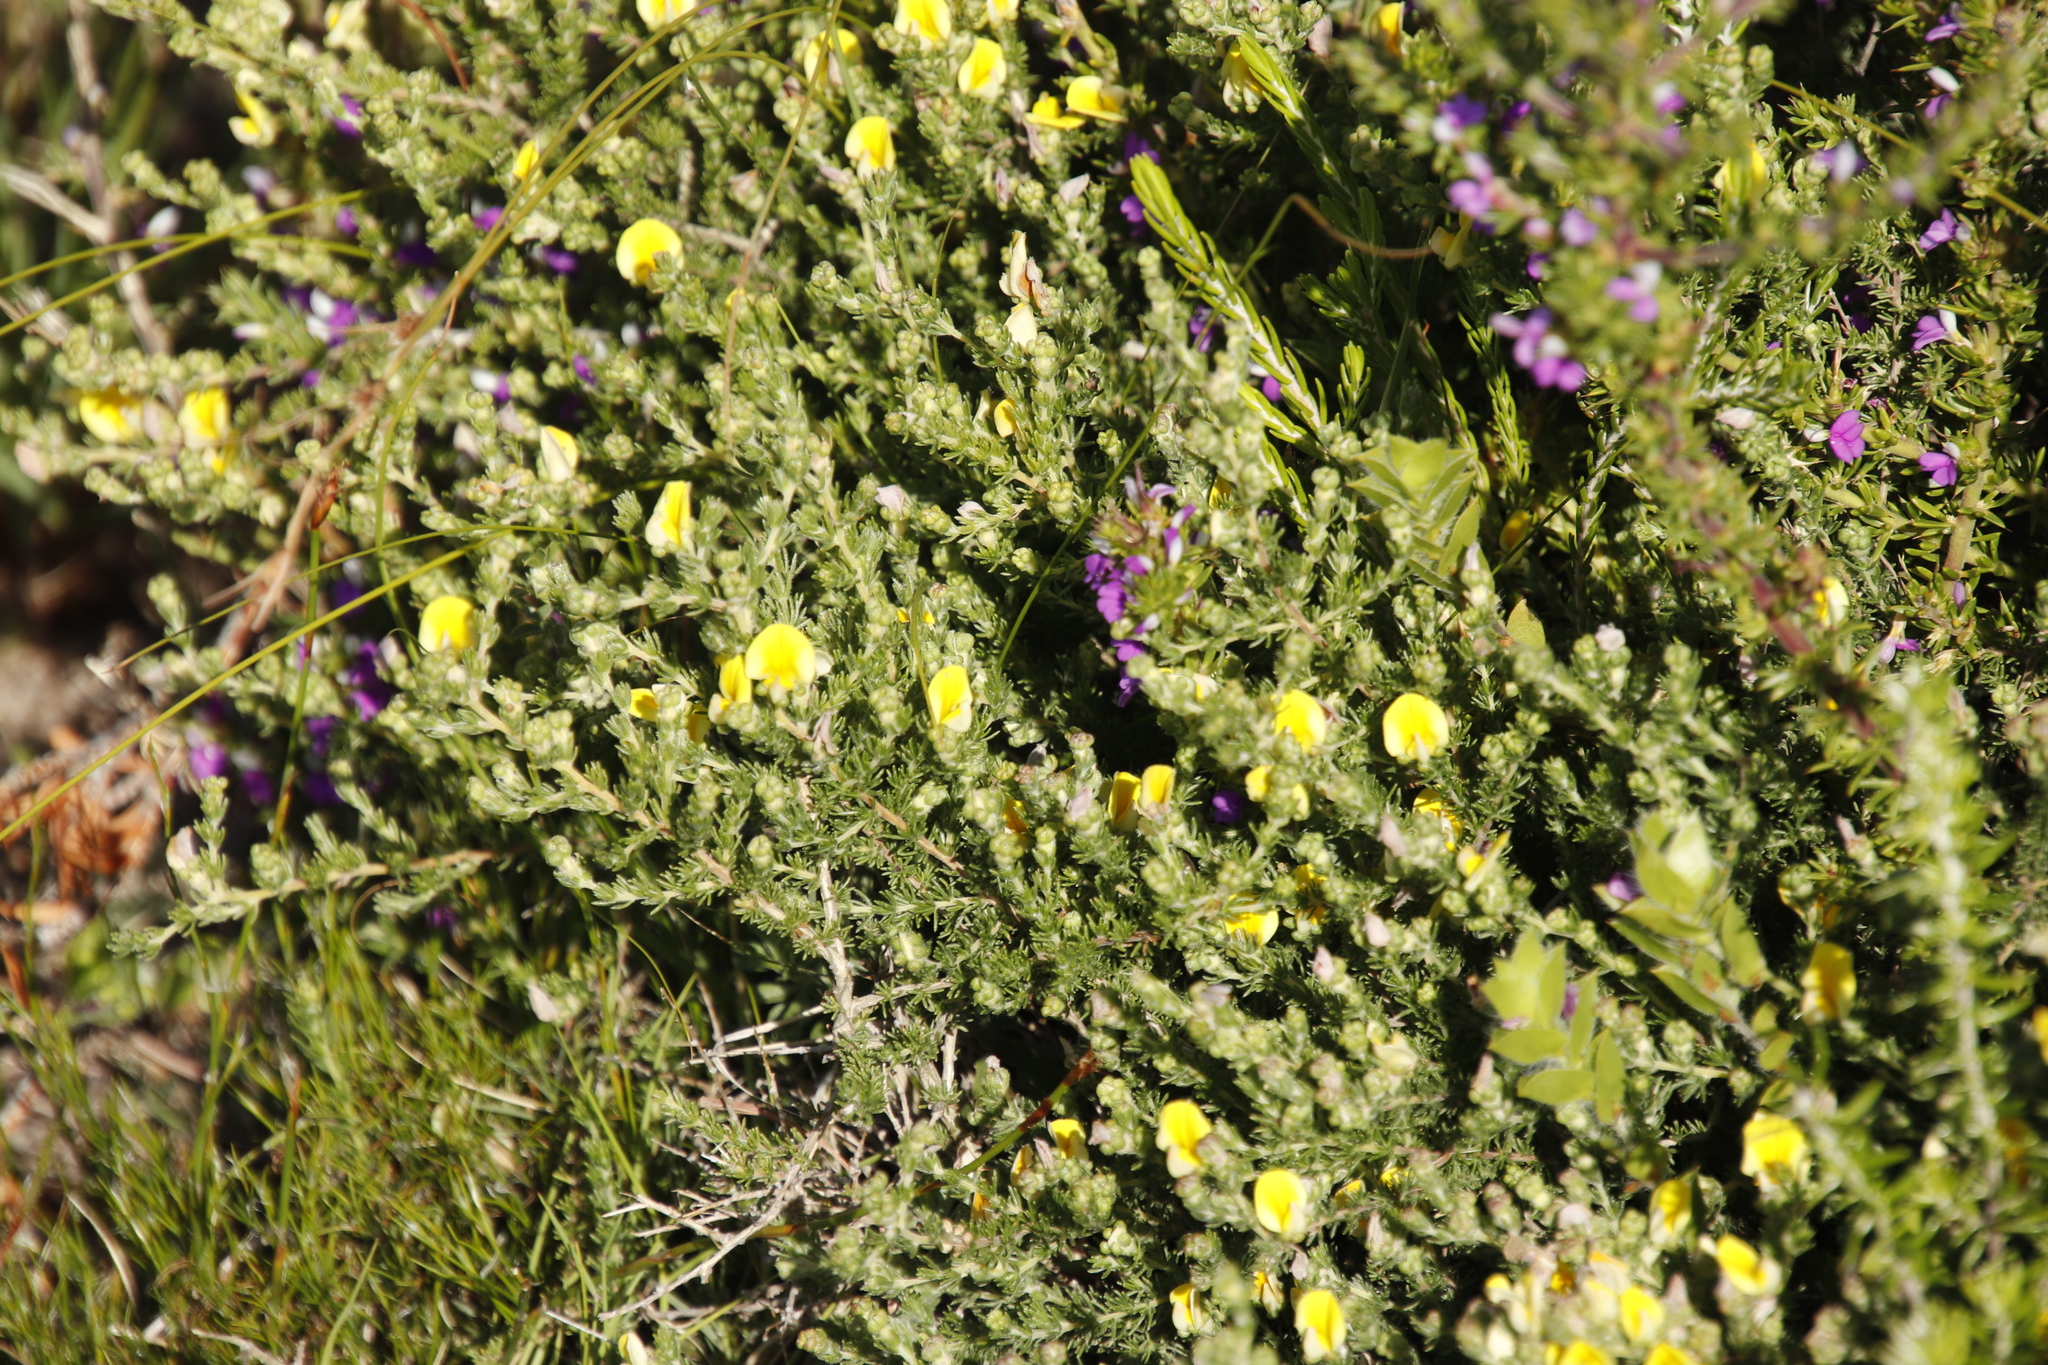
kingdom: Plantae
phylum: Tracheophyta
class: Magnoliopsida
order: Fabales
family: Fabaceae
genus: Aspalathus
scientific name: Aspalathus cymbiformis
